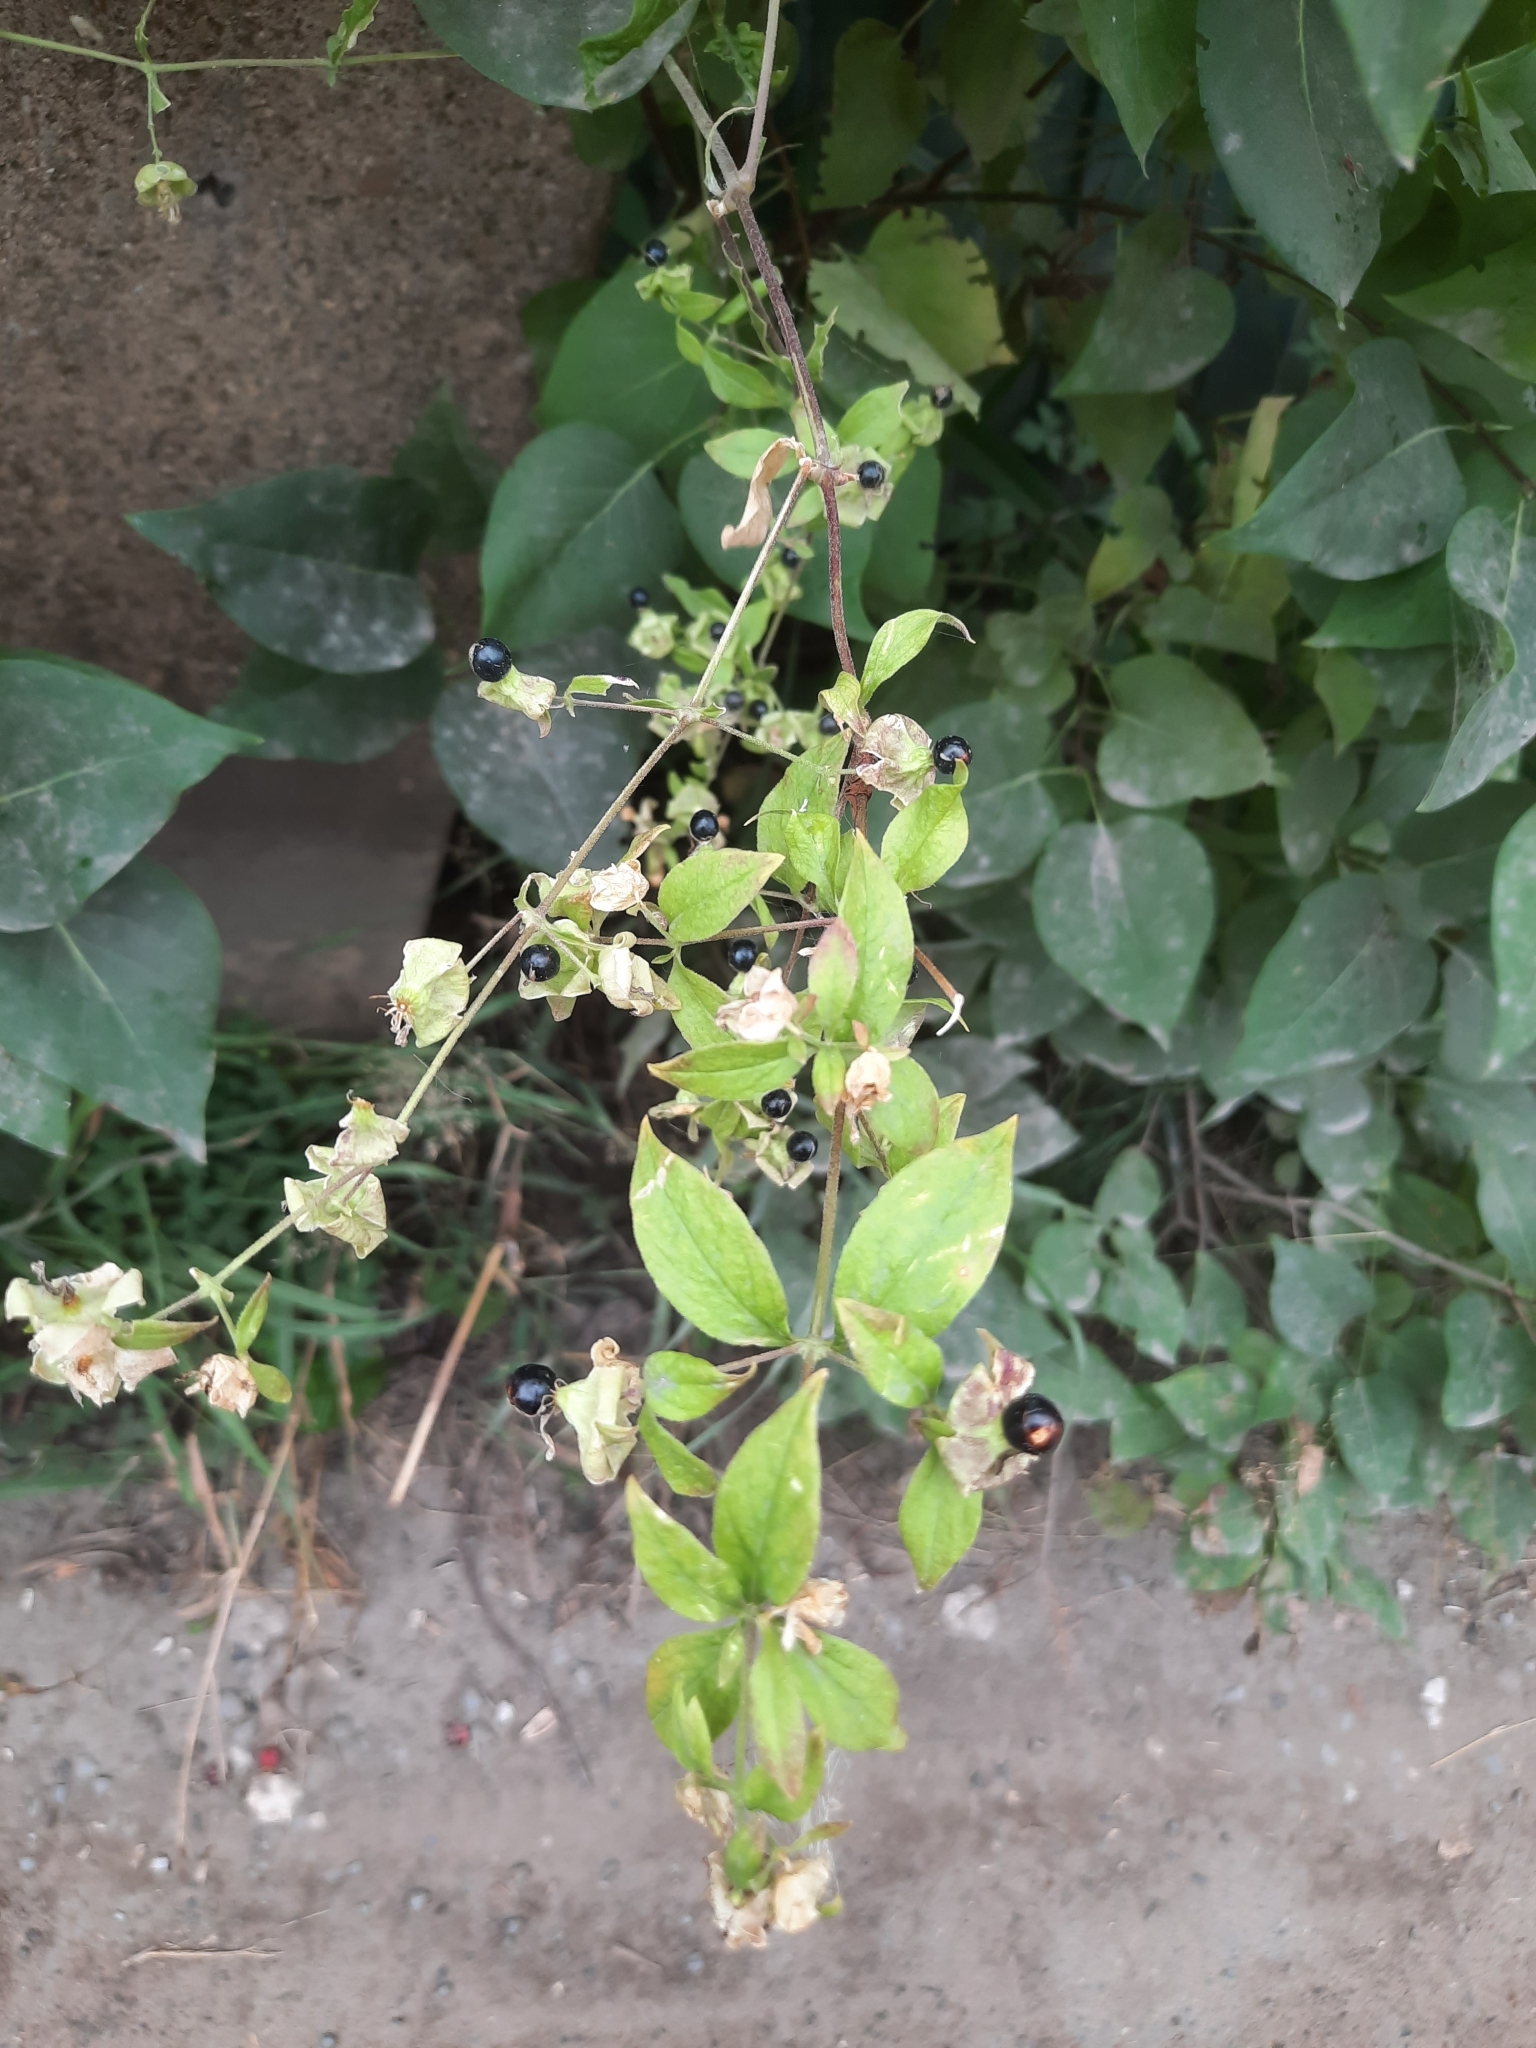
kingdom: Plantae
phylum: Tracheophyta
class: Magnoliopsida
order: Caryophyllales
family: Caryophyllaceae
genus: Silene
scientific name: Silene baccifera
